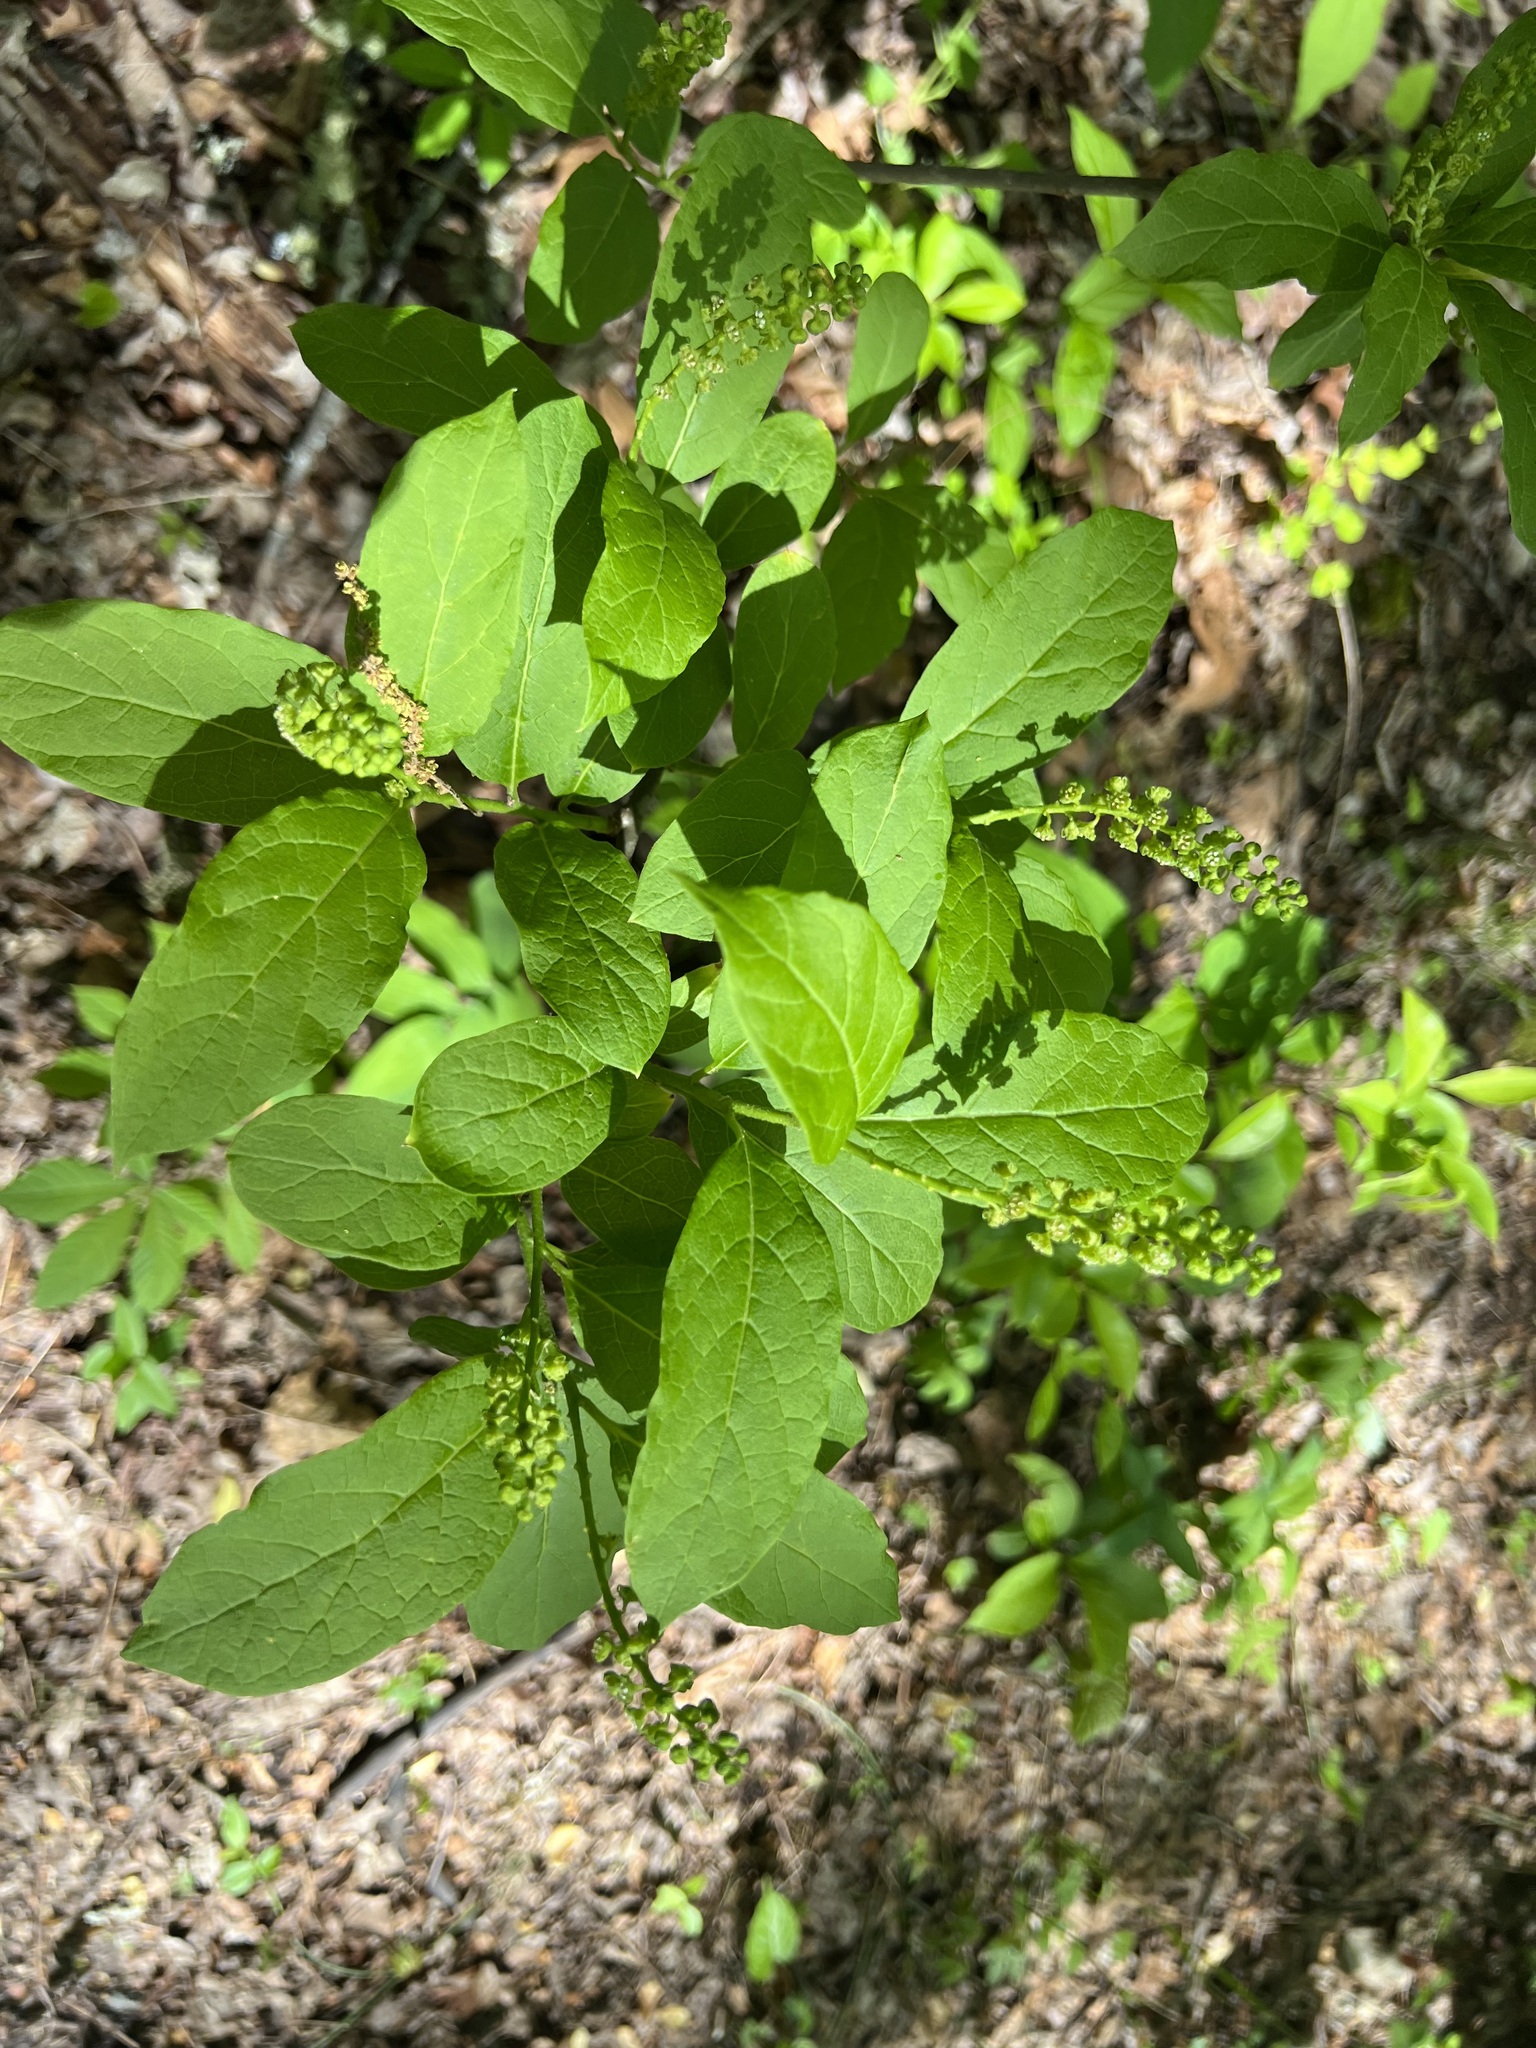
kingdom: Plantae
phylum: Tracheophyta
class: Magnoliopsida
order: Santalales
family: Cervantesiaceae
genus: Pyrularia
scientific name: Pyrularia pubera
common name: Oilnut
